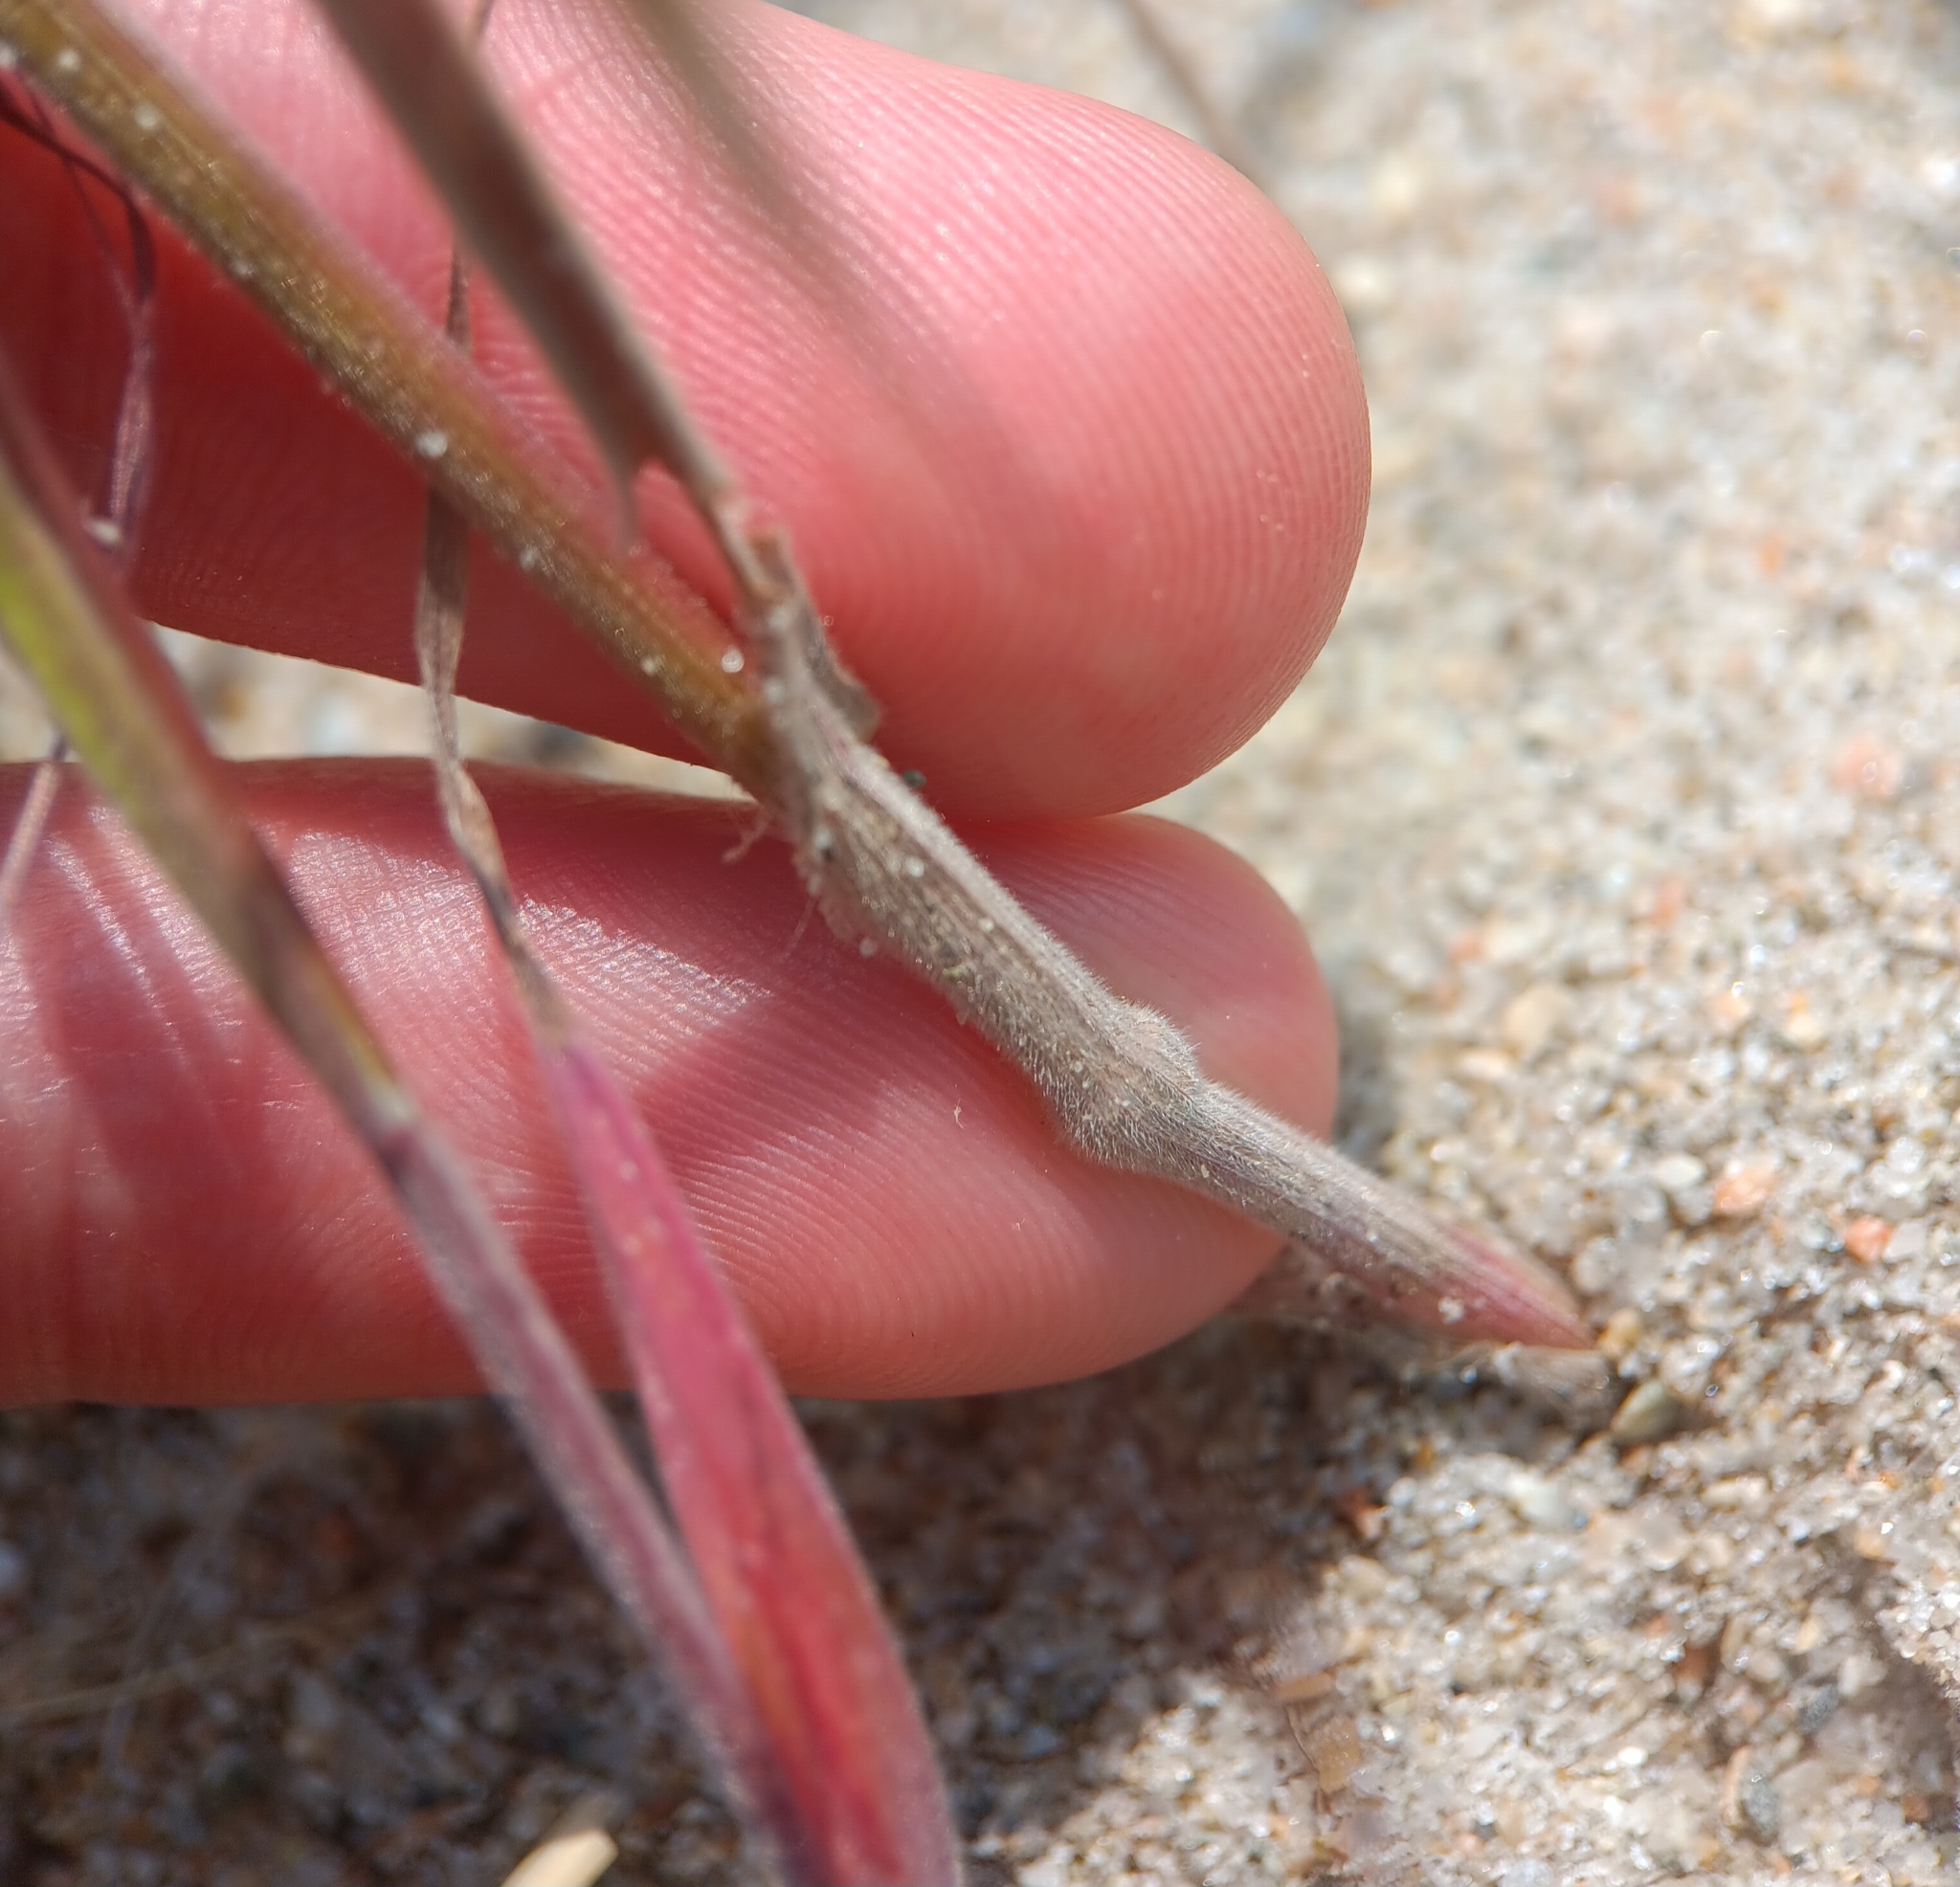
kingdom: Plantae
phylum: Tracheophyta
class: Liliopsida
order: Poales
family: Poaceae
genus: Bromus
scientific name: Bromus tectorum
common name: Cheatgrass
